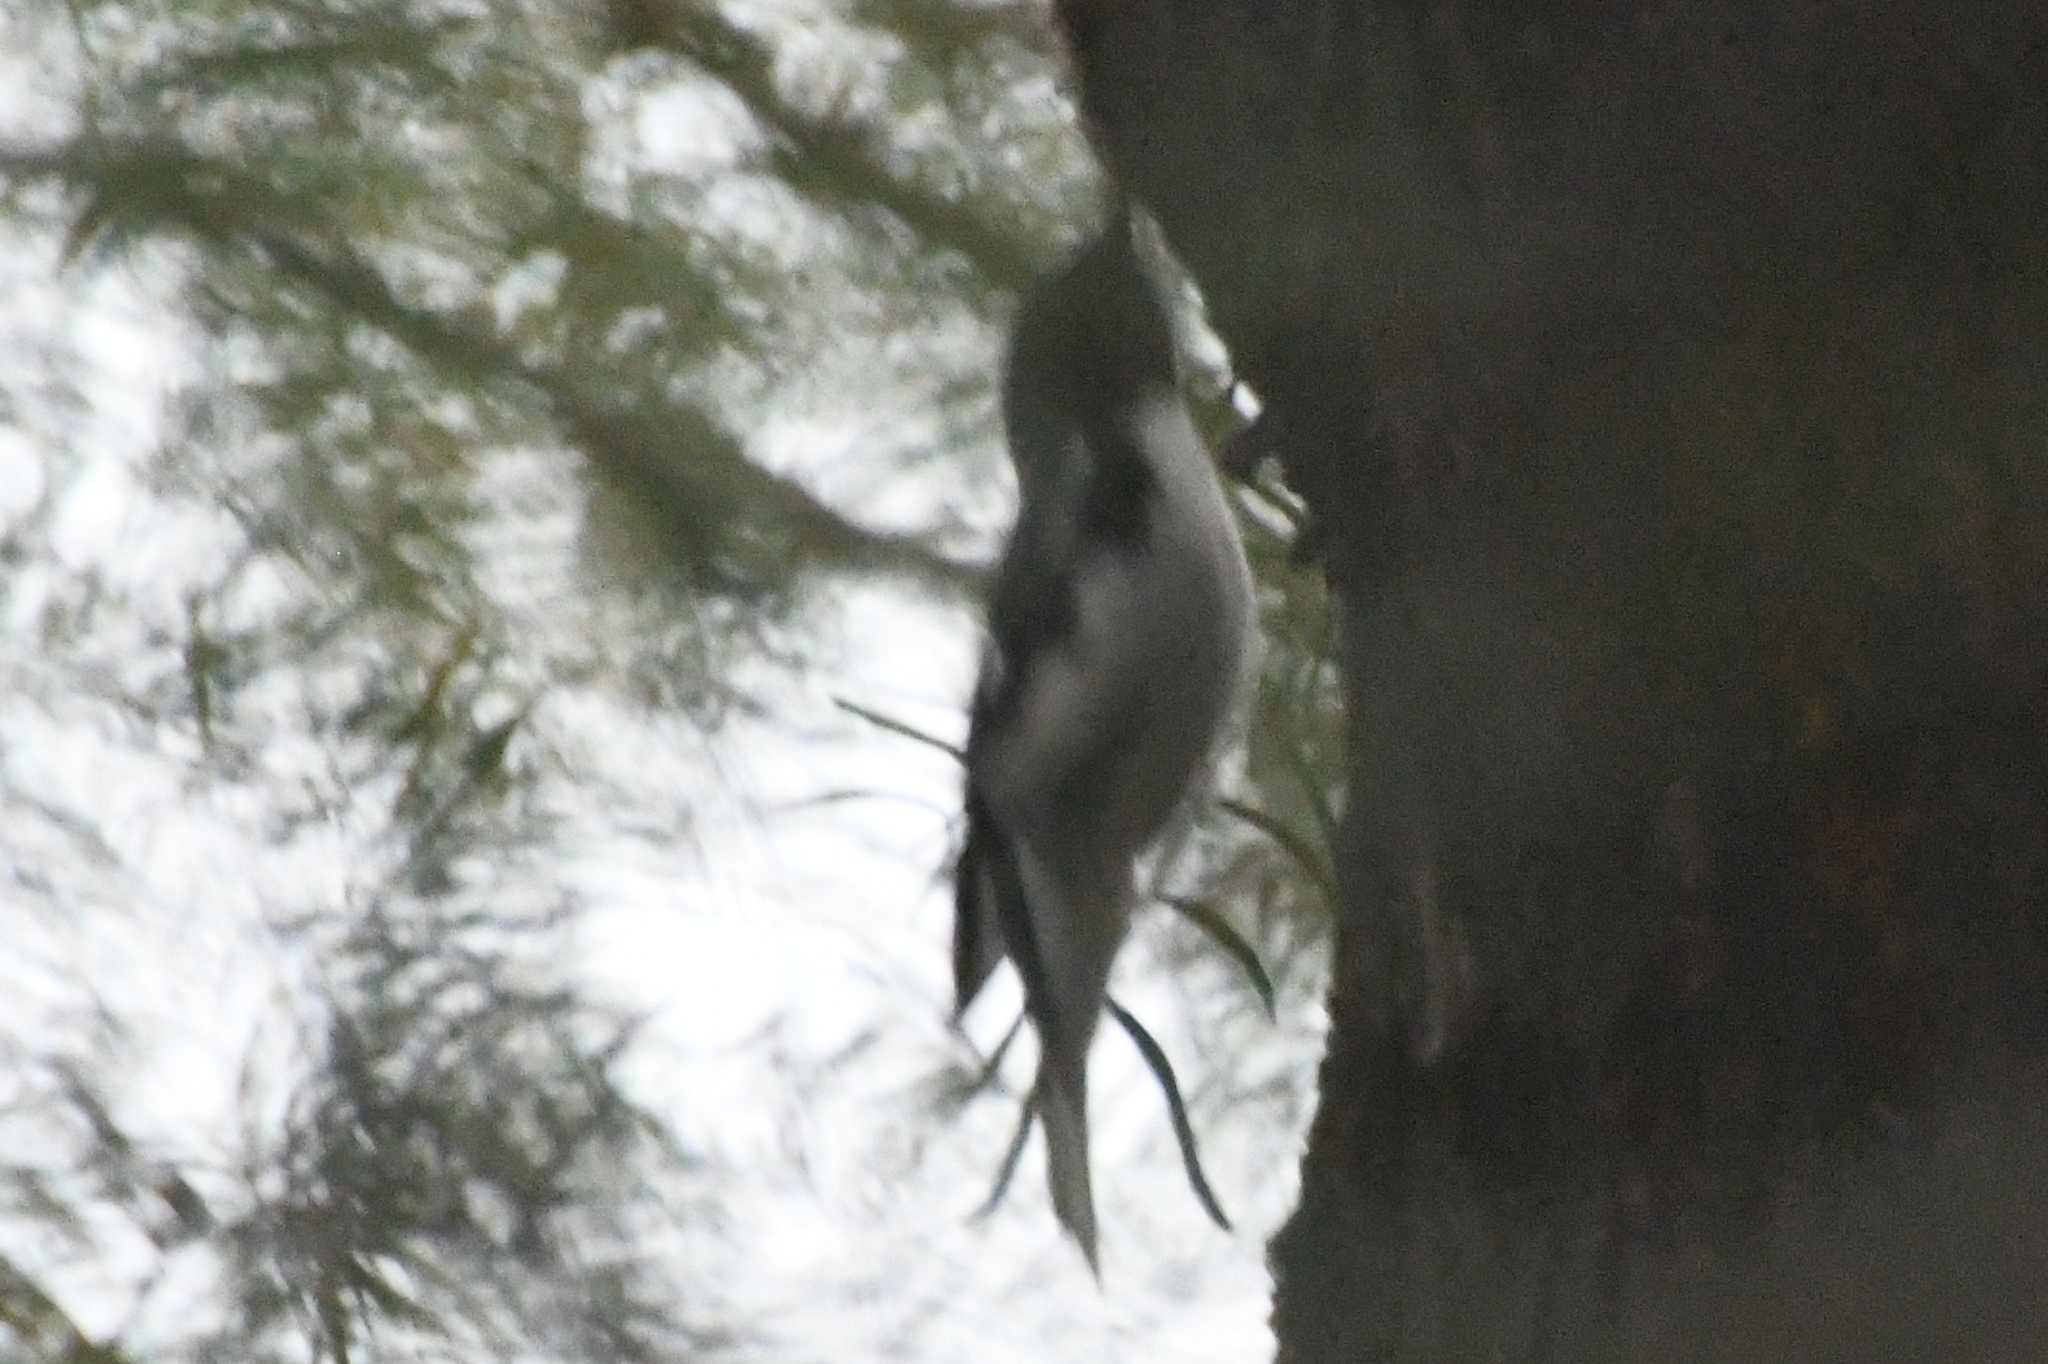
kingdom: Animalia
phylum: Chordata
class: Aves
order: Passeriformes
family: Parulidae
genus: Setophaga
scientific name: Setophaga caerulescens
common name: Black-throated blue warbler
